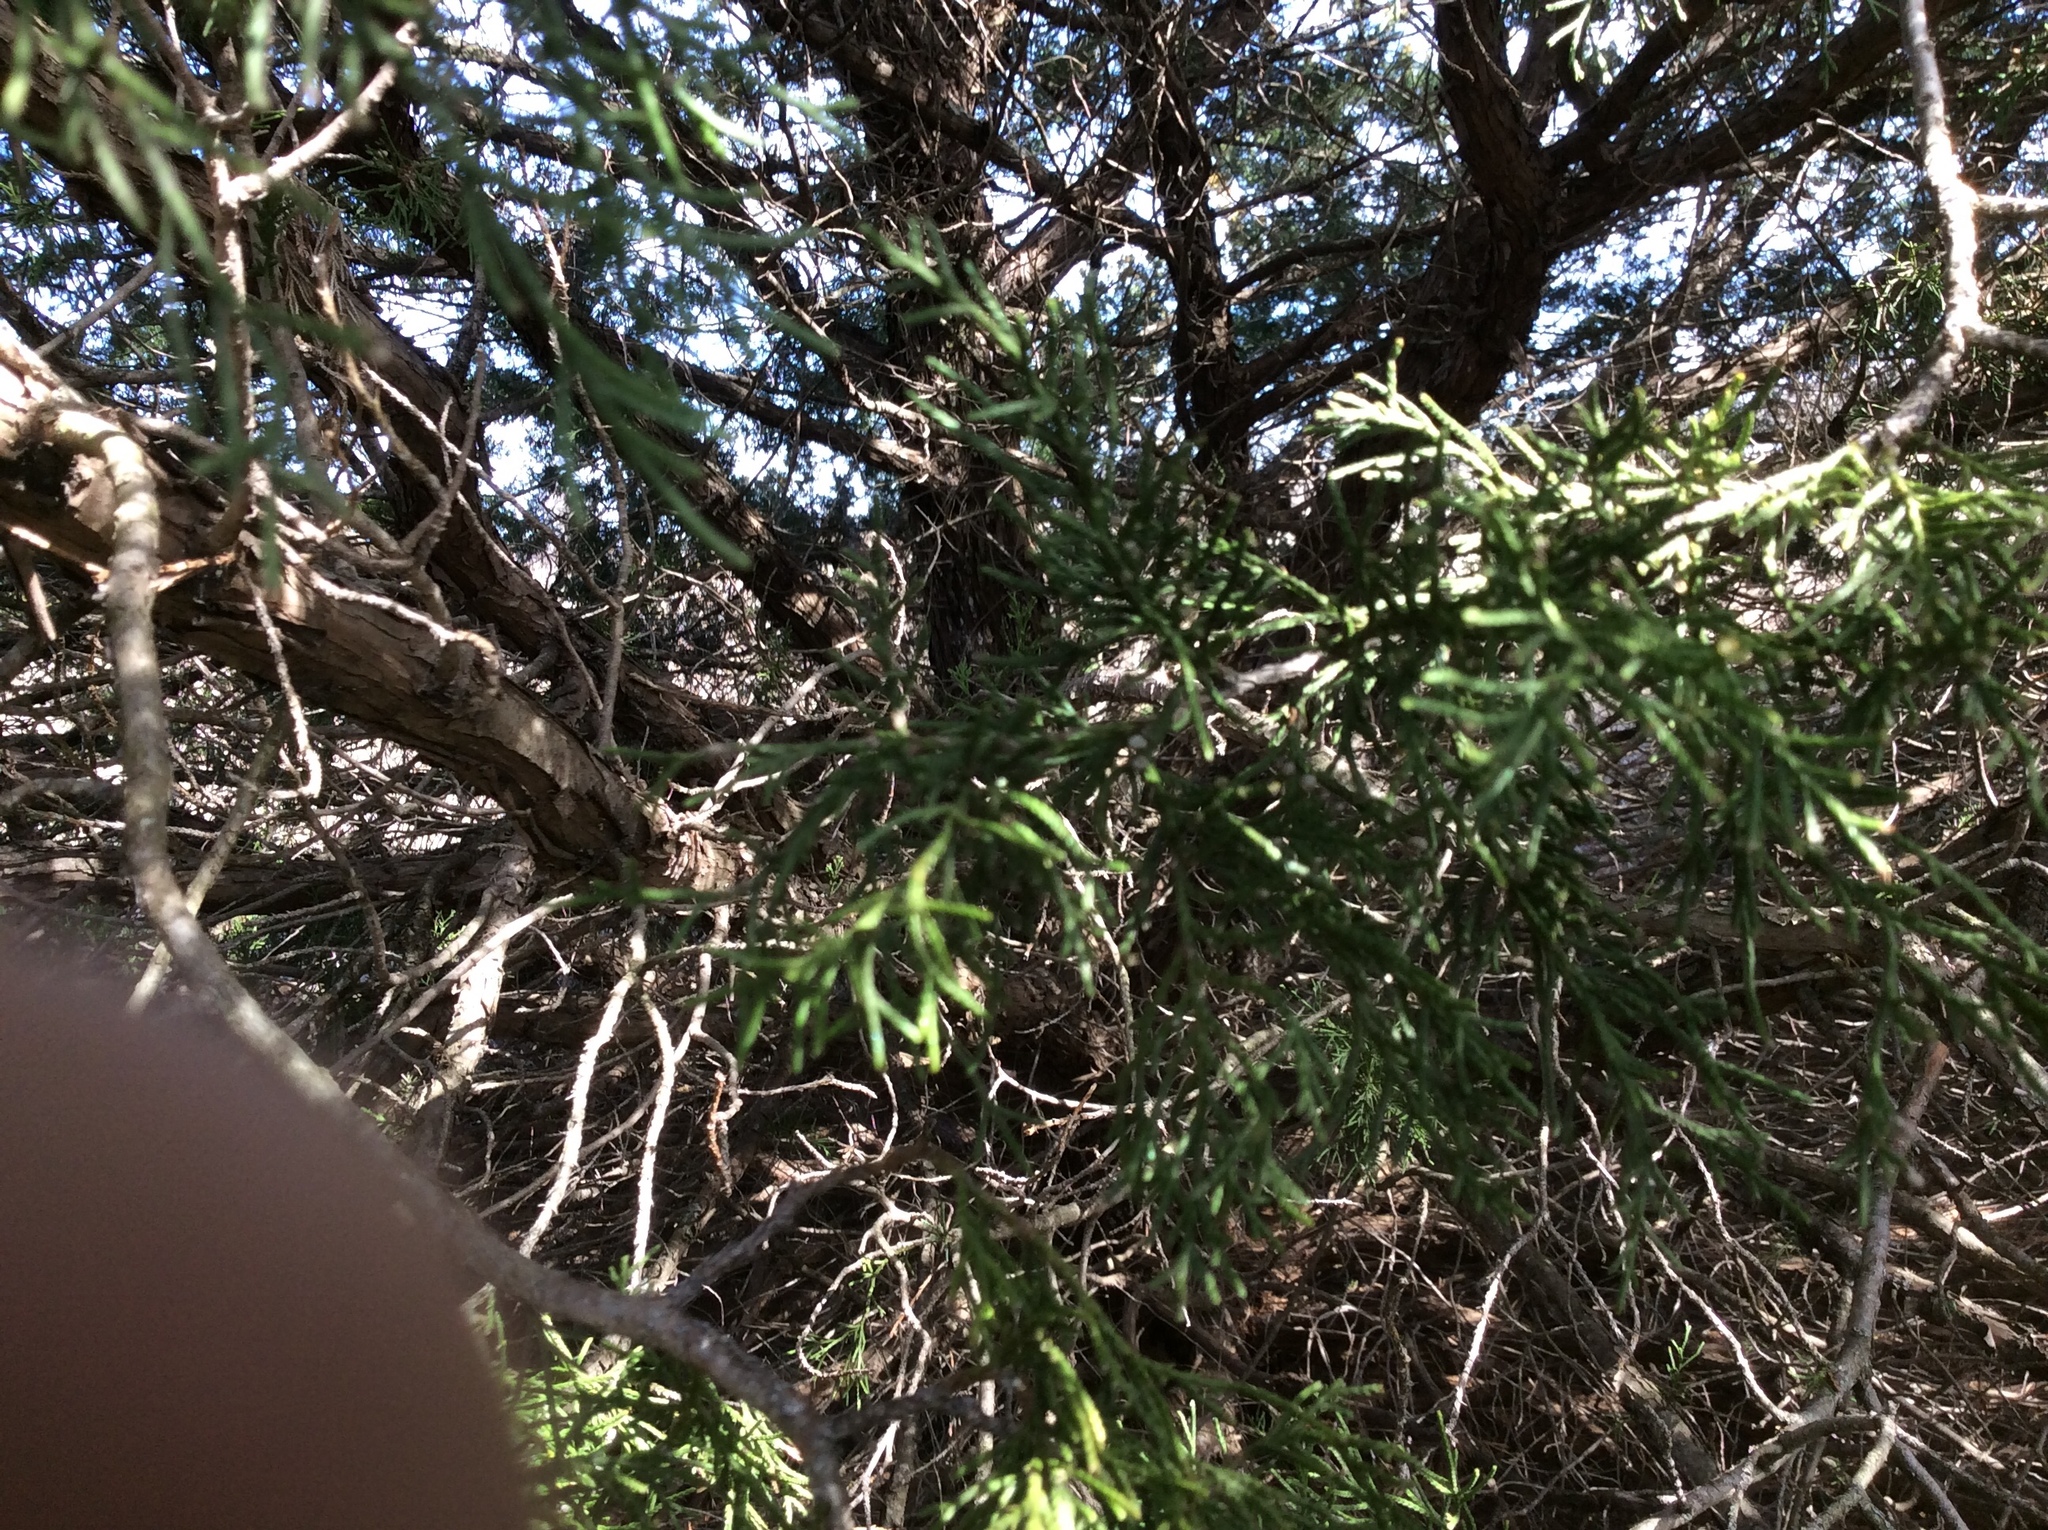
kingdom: Plantae
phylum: Tracheophyta
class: Pinopsida
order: Pinales
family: Cupressaceae
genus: Juniperus
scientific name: Juniperus ashei
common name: Mexican juniper
